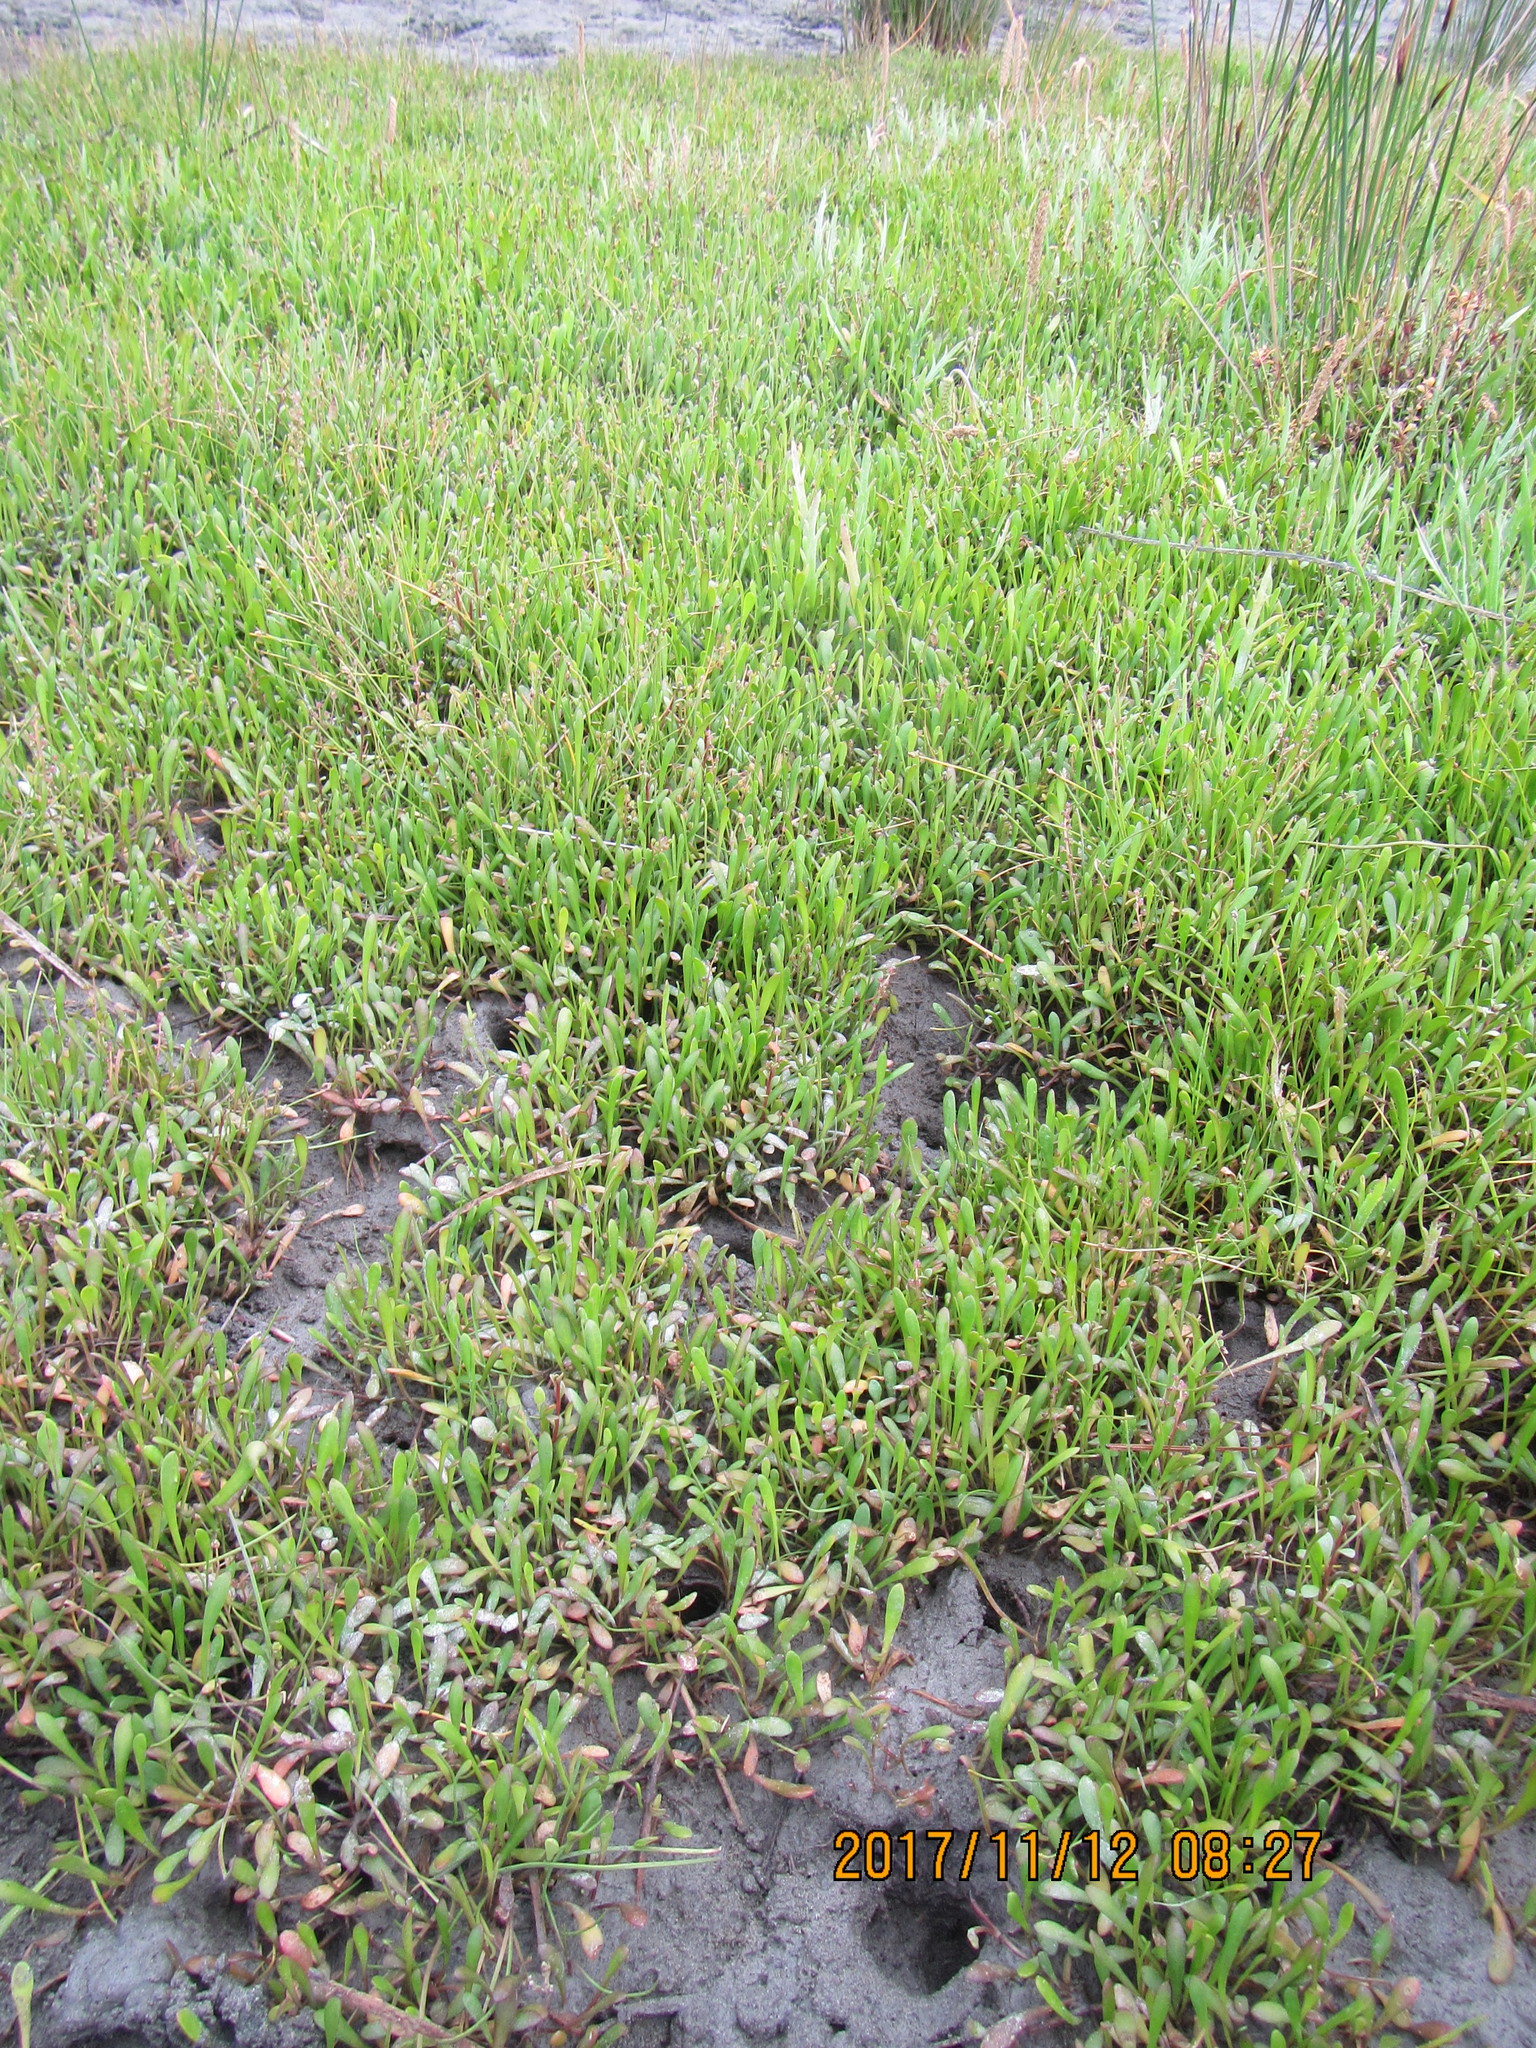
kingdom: Plantae
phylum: Tracheophyta
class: Magnoliopsida
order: Asterales
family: Goodeniaceae
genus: Goodenia
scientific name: Goodenia radicans
